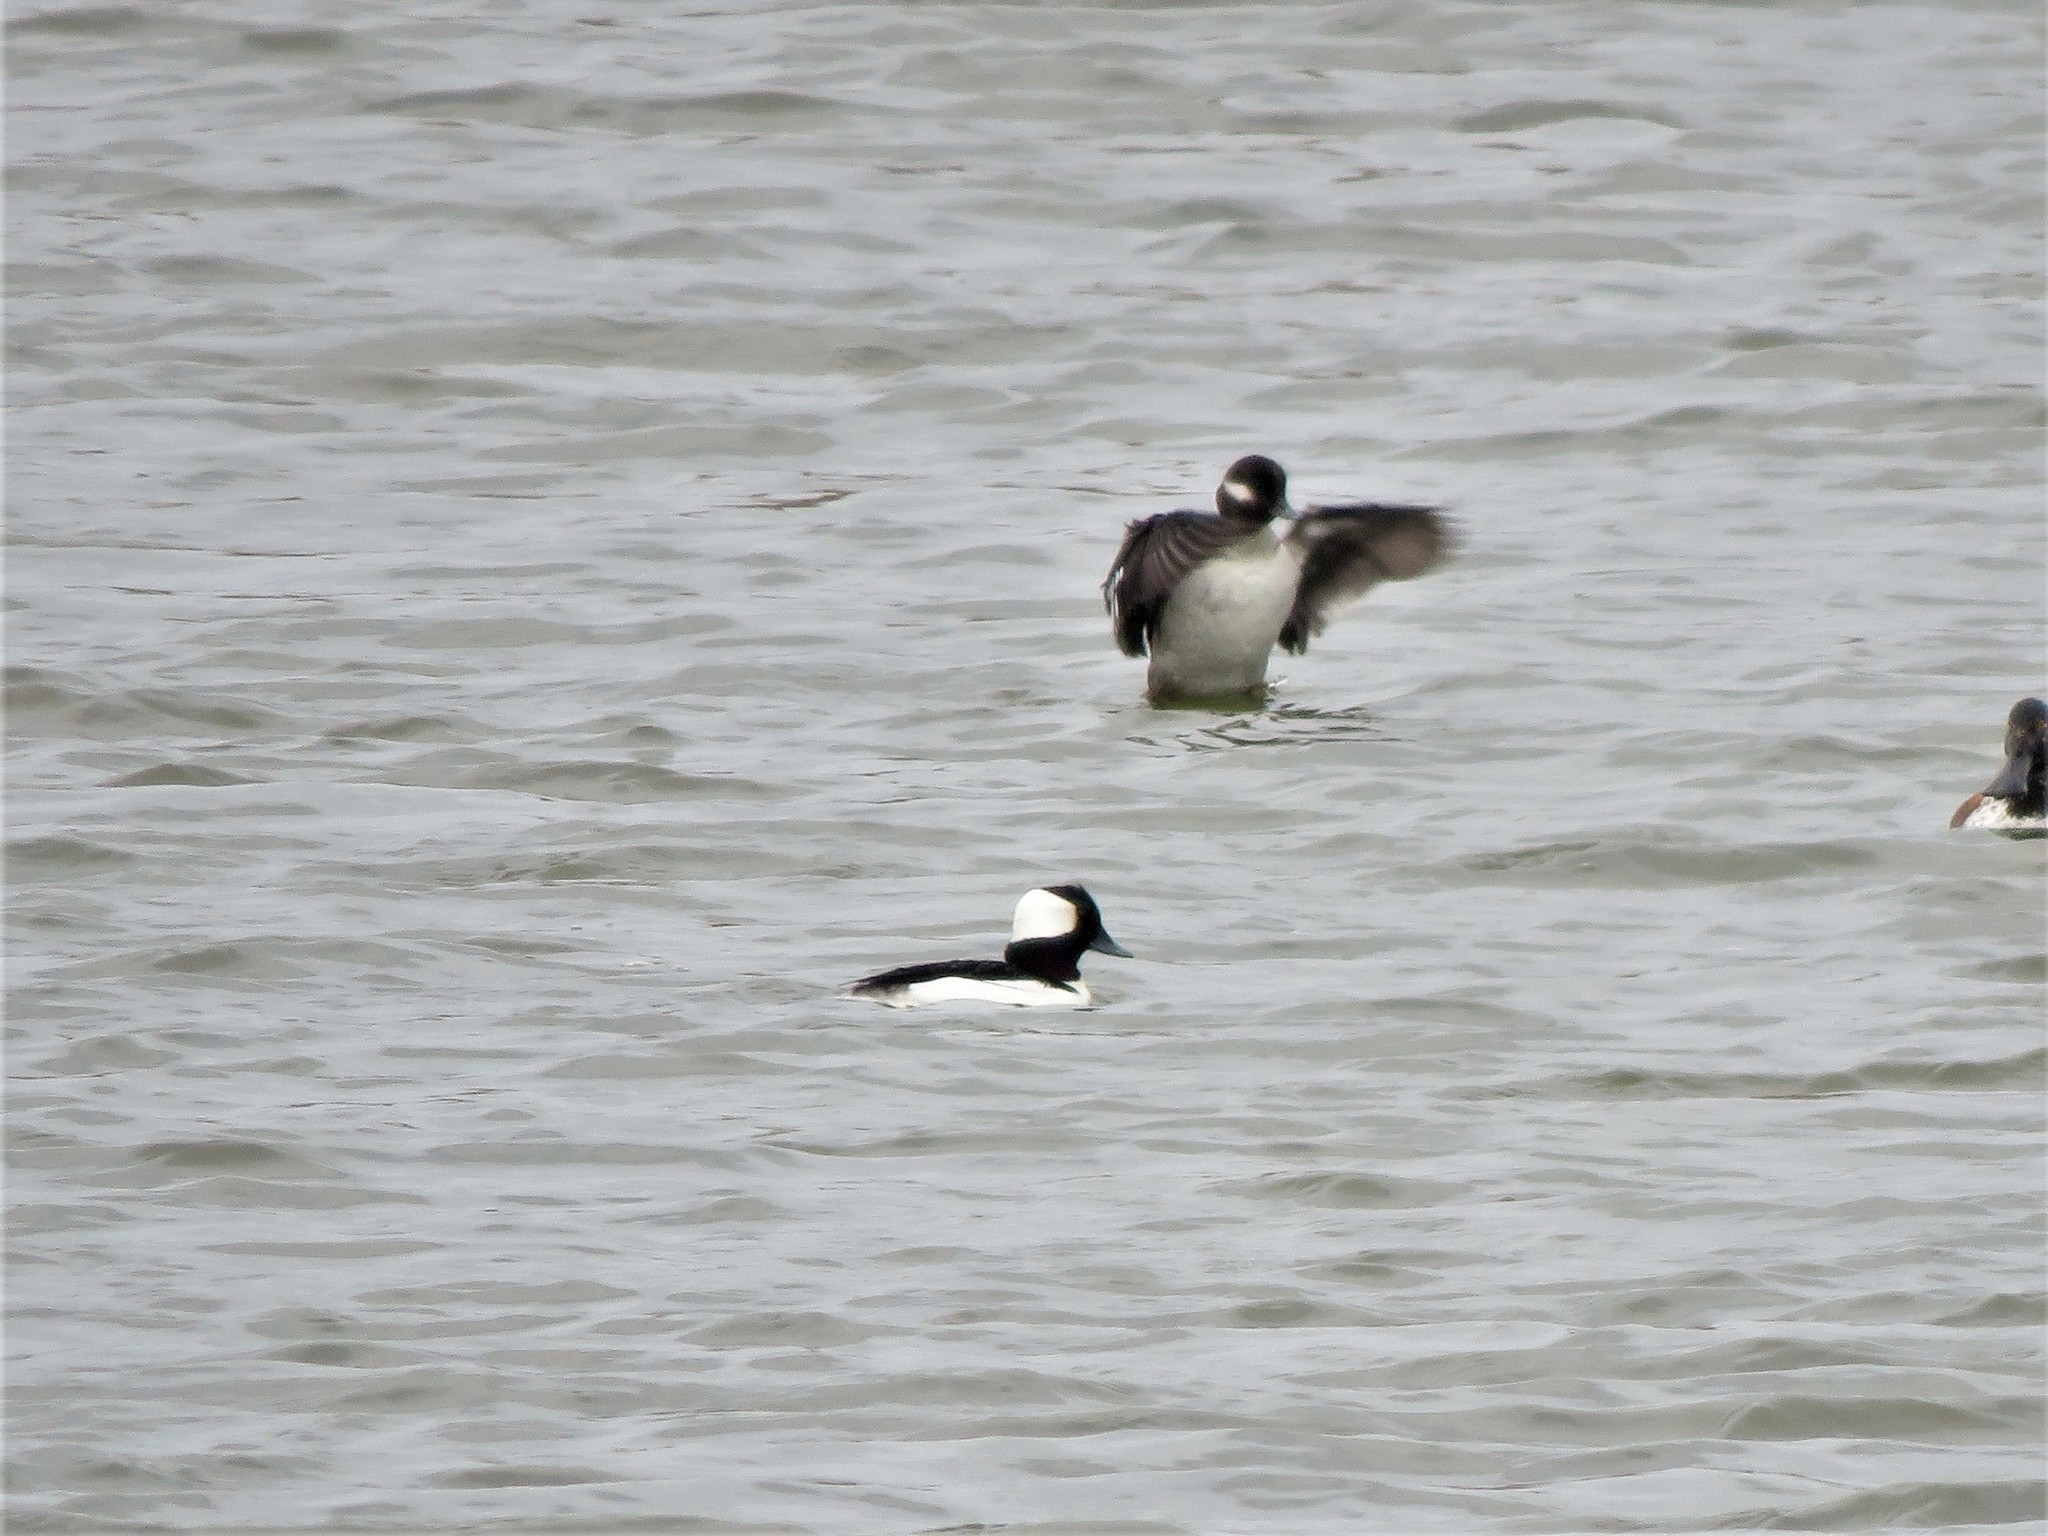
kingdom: Animalia
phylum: Chordata
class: Aves
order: Anseriformes
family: Anatidae
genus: Bucephala
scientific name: Bucephala albeola
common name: Bufflehead
